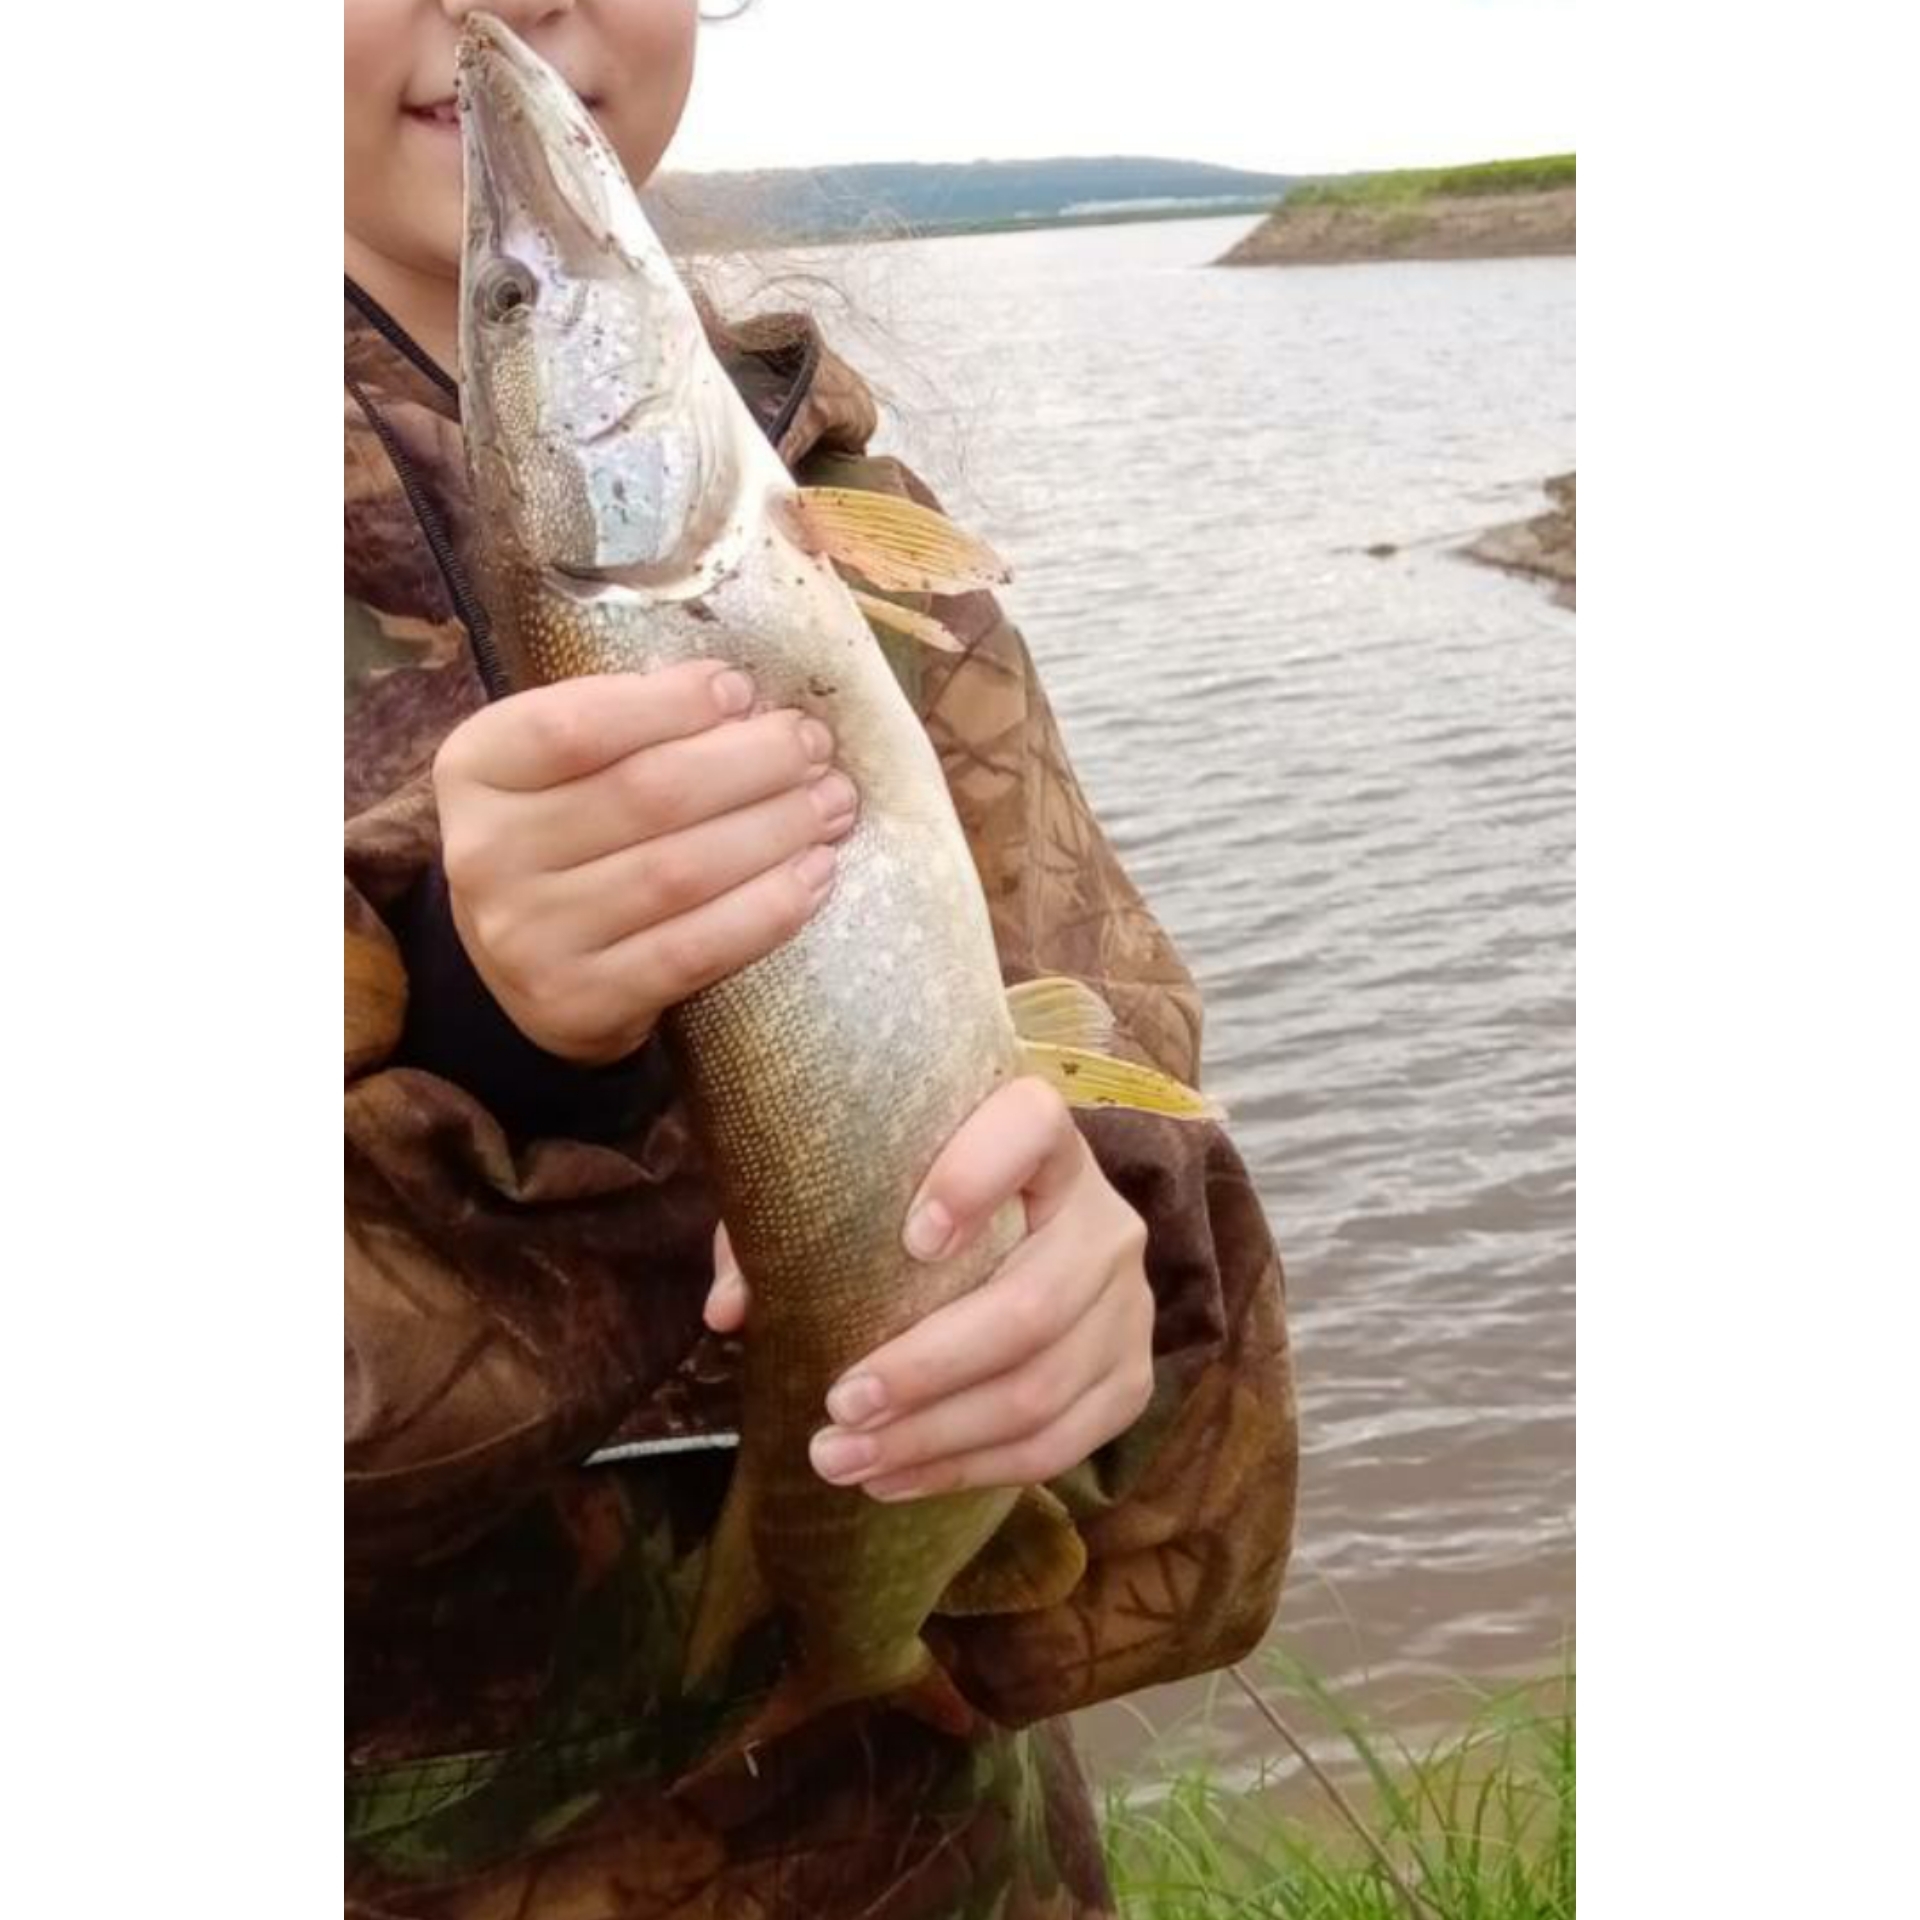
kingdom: Animalia
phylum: Chordata
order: Esociformes
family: Esocidae
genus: Esox
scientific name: Esox lucius
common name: Northern pike
